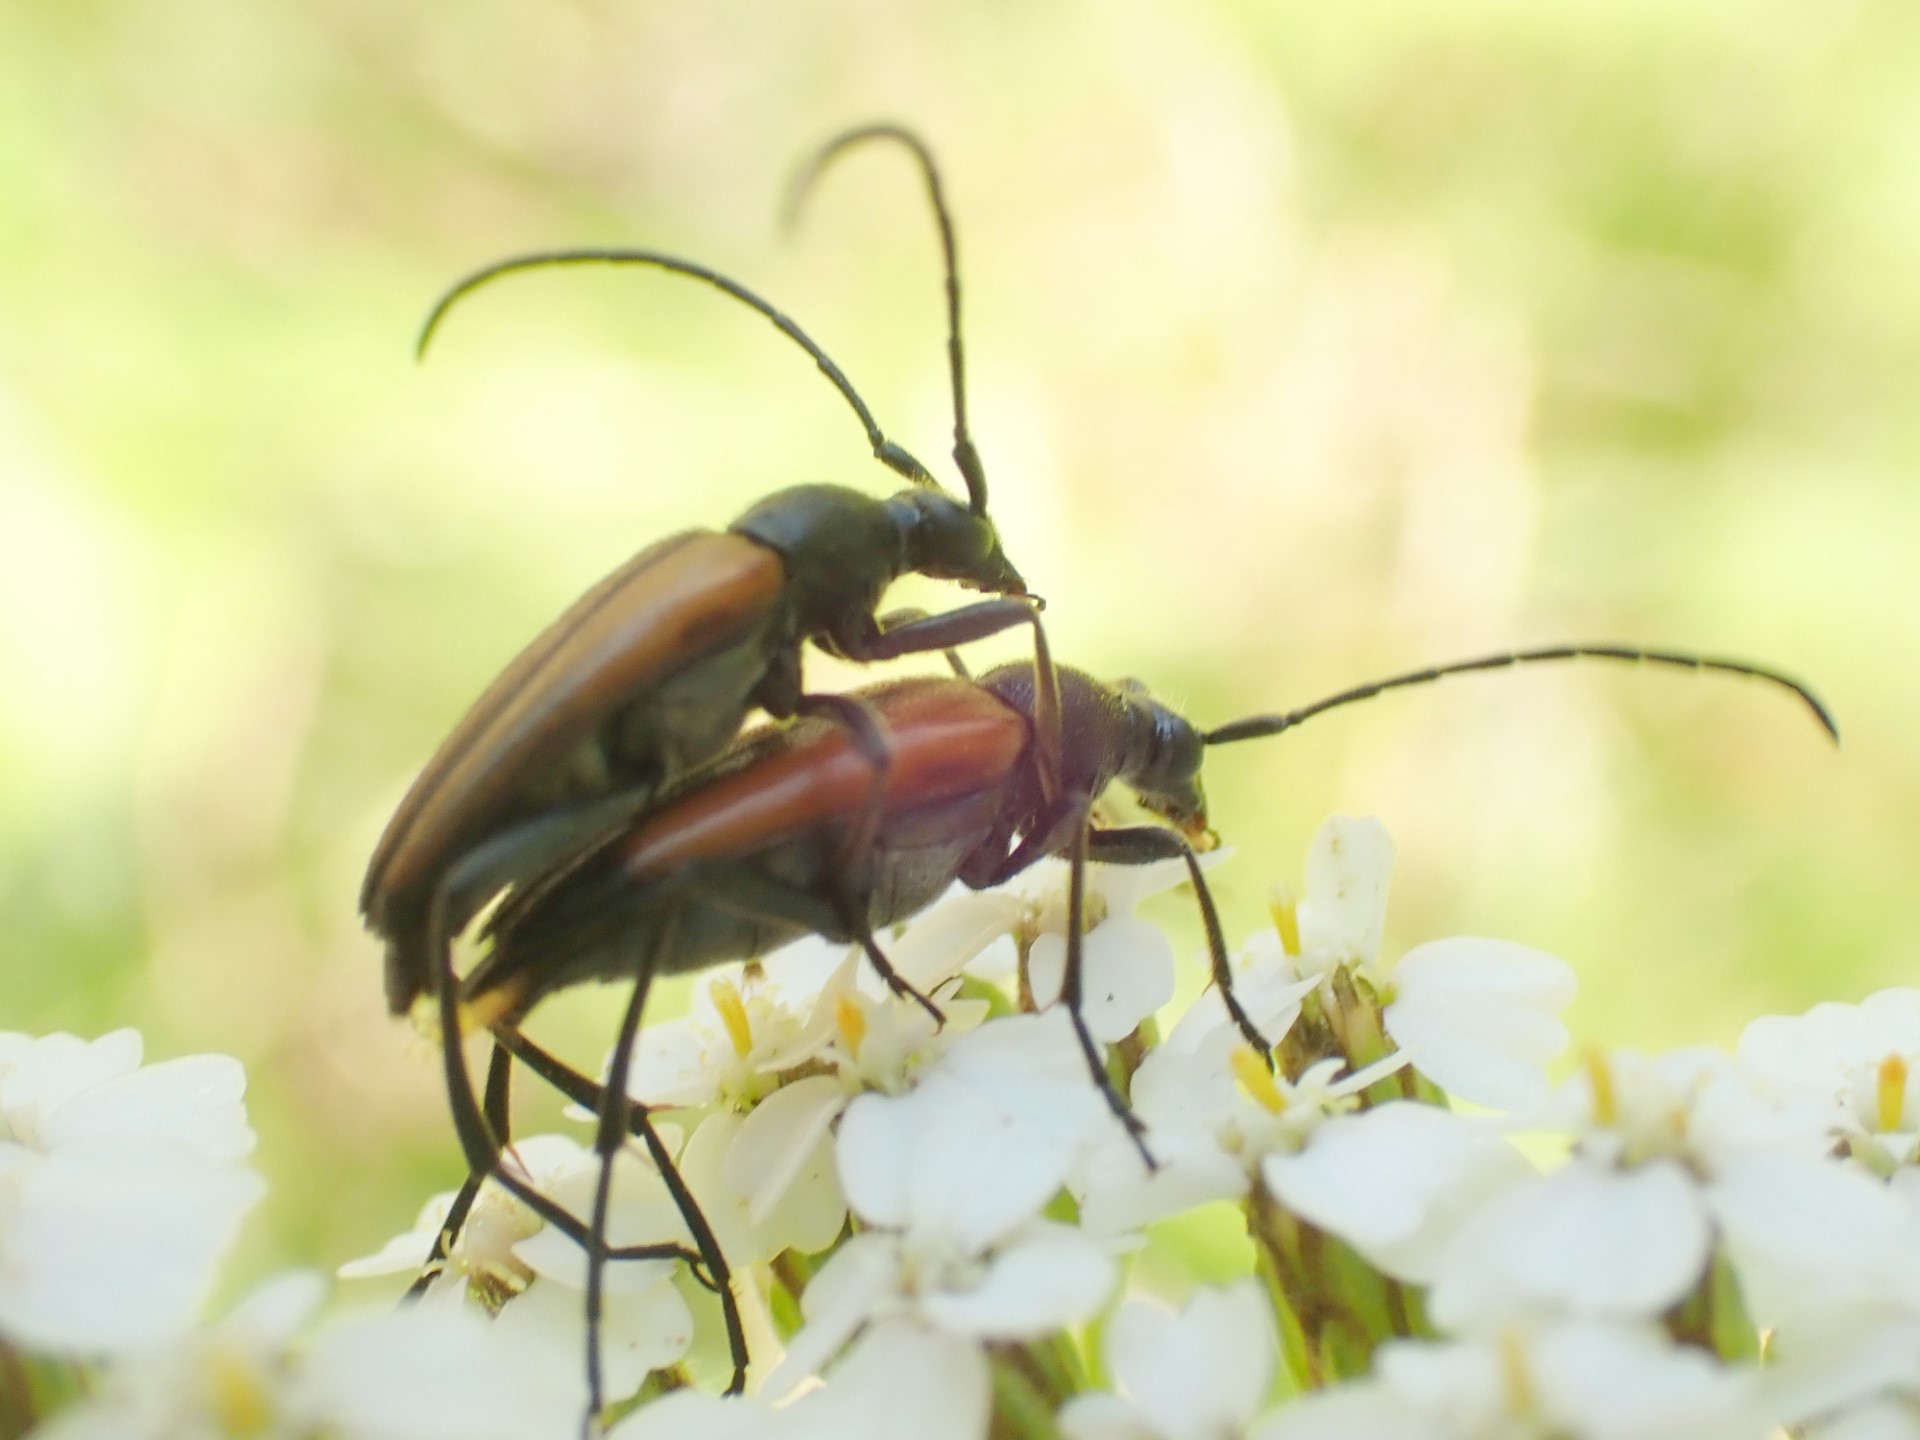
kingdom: Animalia
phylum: Arthropoda
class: Insecta
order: Coleoptera
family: Cerambycidae
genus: Stenurella
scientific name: Stenurella melanura
